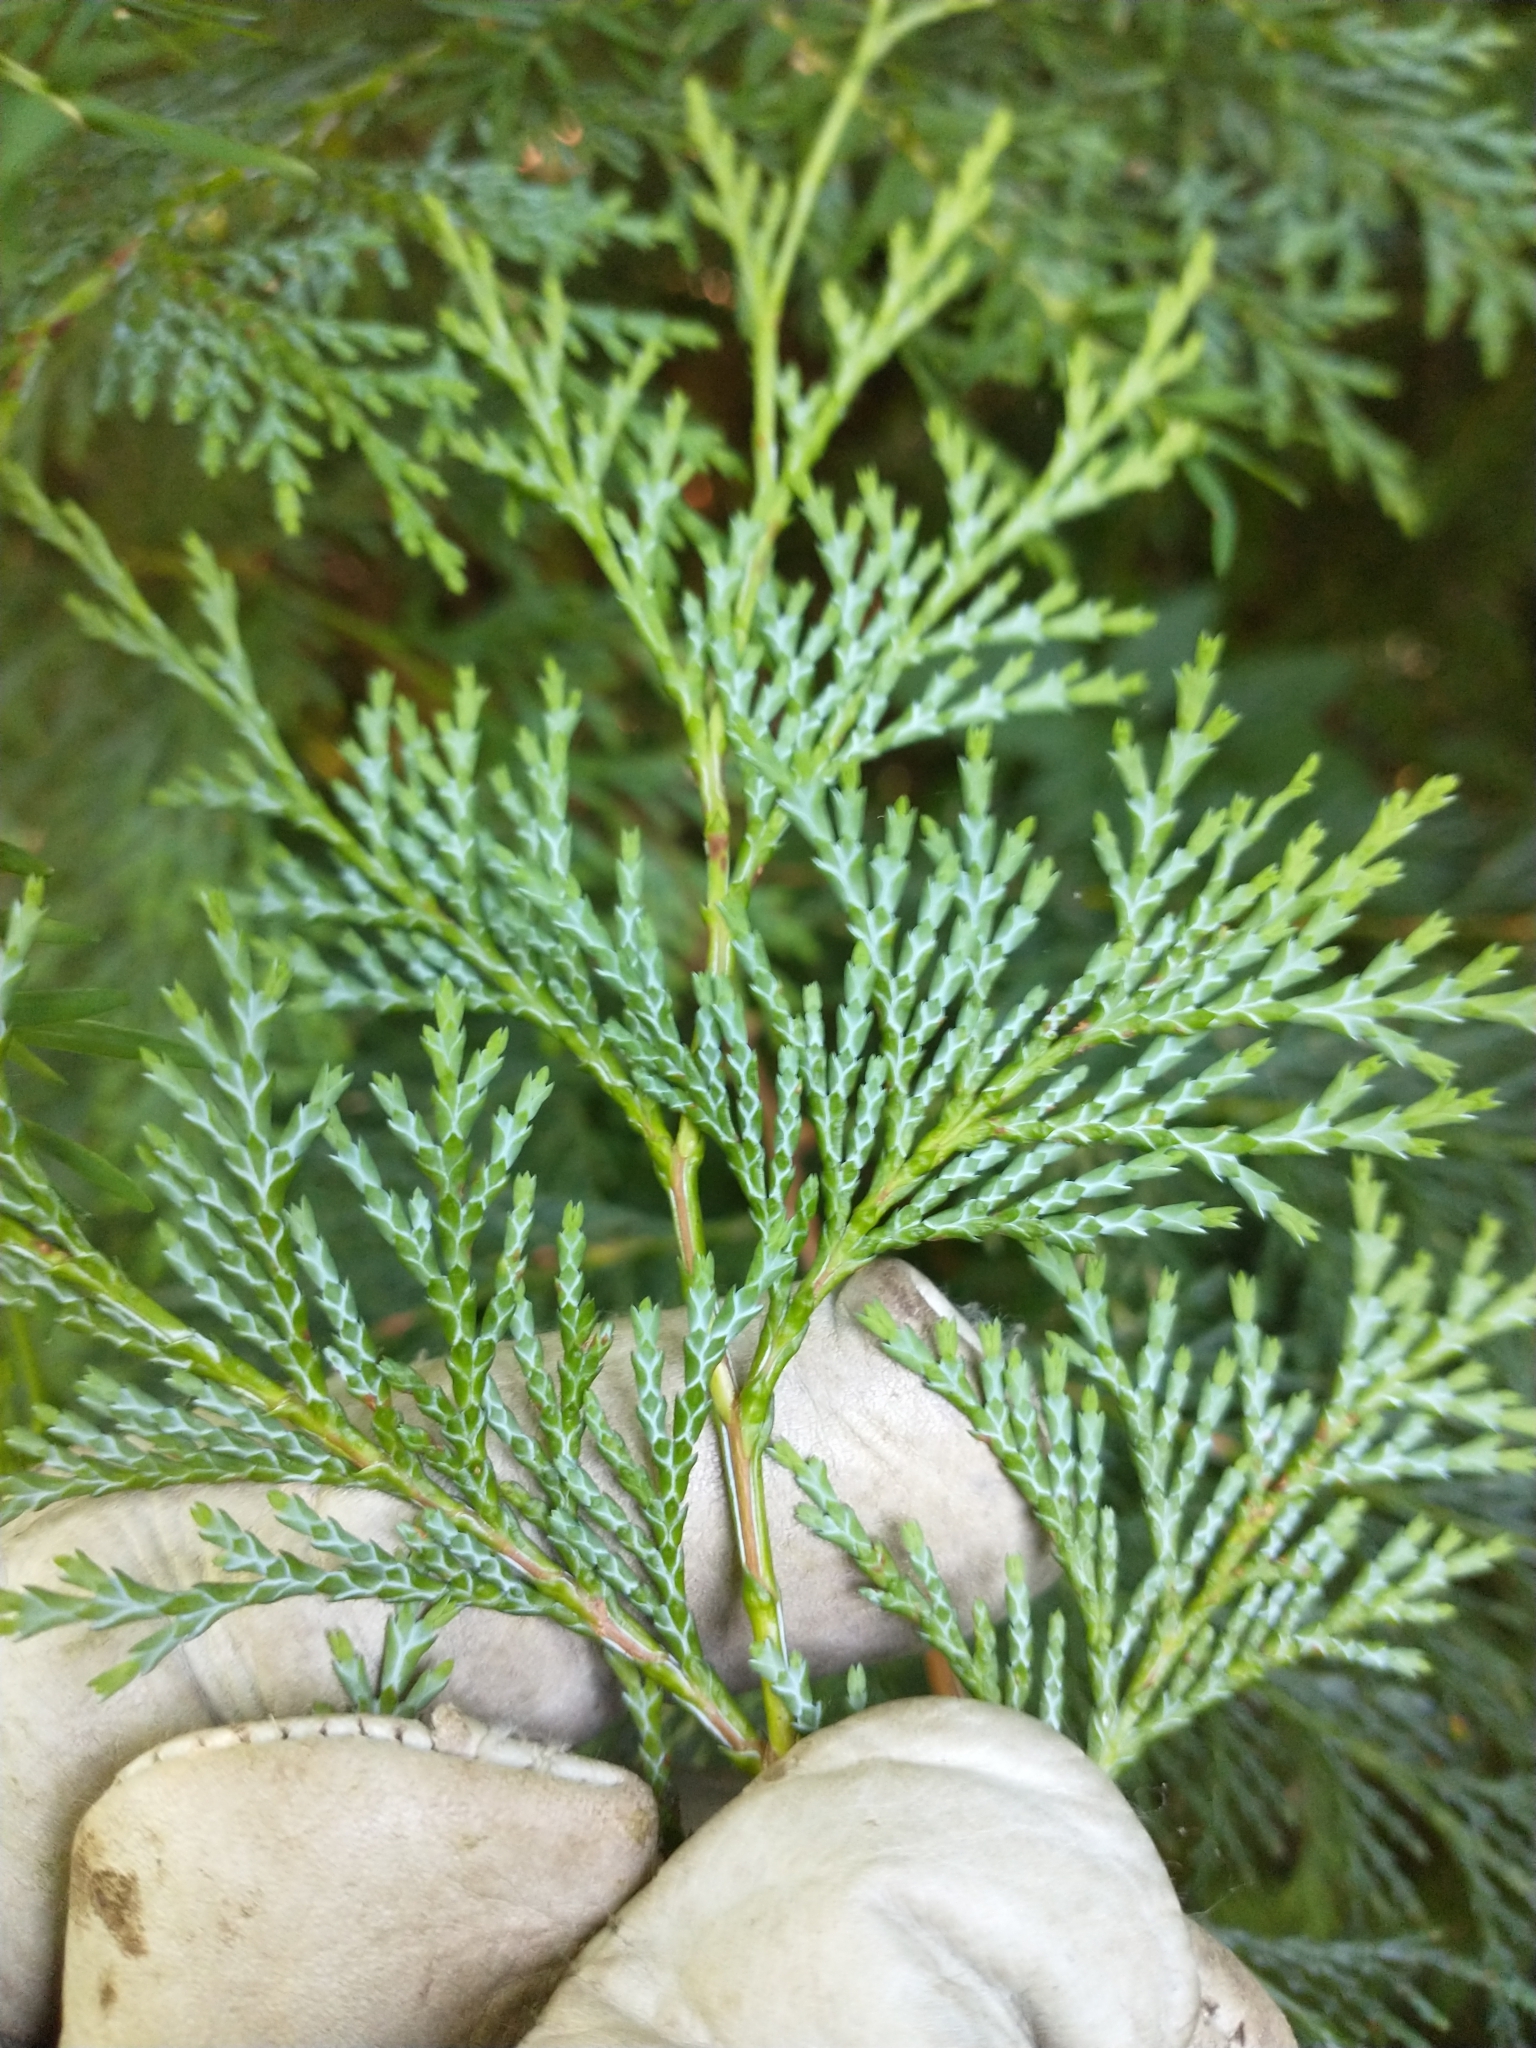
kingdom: Plantae
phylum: Tracheophyta
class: Pinopsida
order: Pinales
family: Cupressaceae
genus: Chamaecyparis
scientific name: Chamaecyparis lawsoniana
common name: Lawson's cypress
